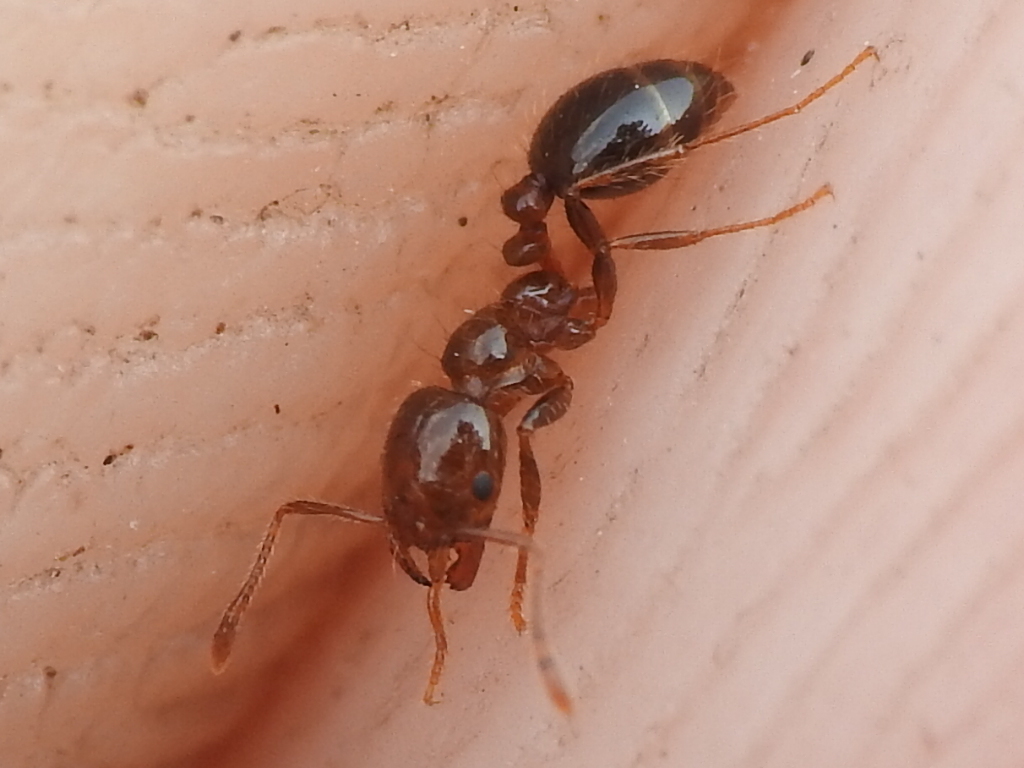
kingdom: Animalia
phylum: Arthropoda
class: Insecta
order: Hymenoptera
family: Formicidae
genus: Solenopsis
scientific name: Solenopsis invicta
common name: Red imported fire ant
